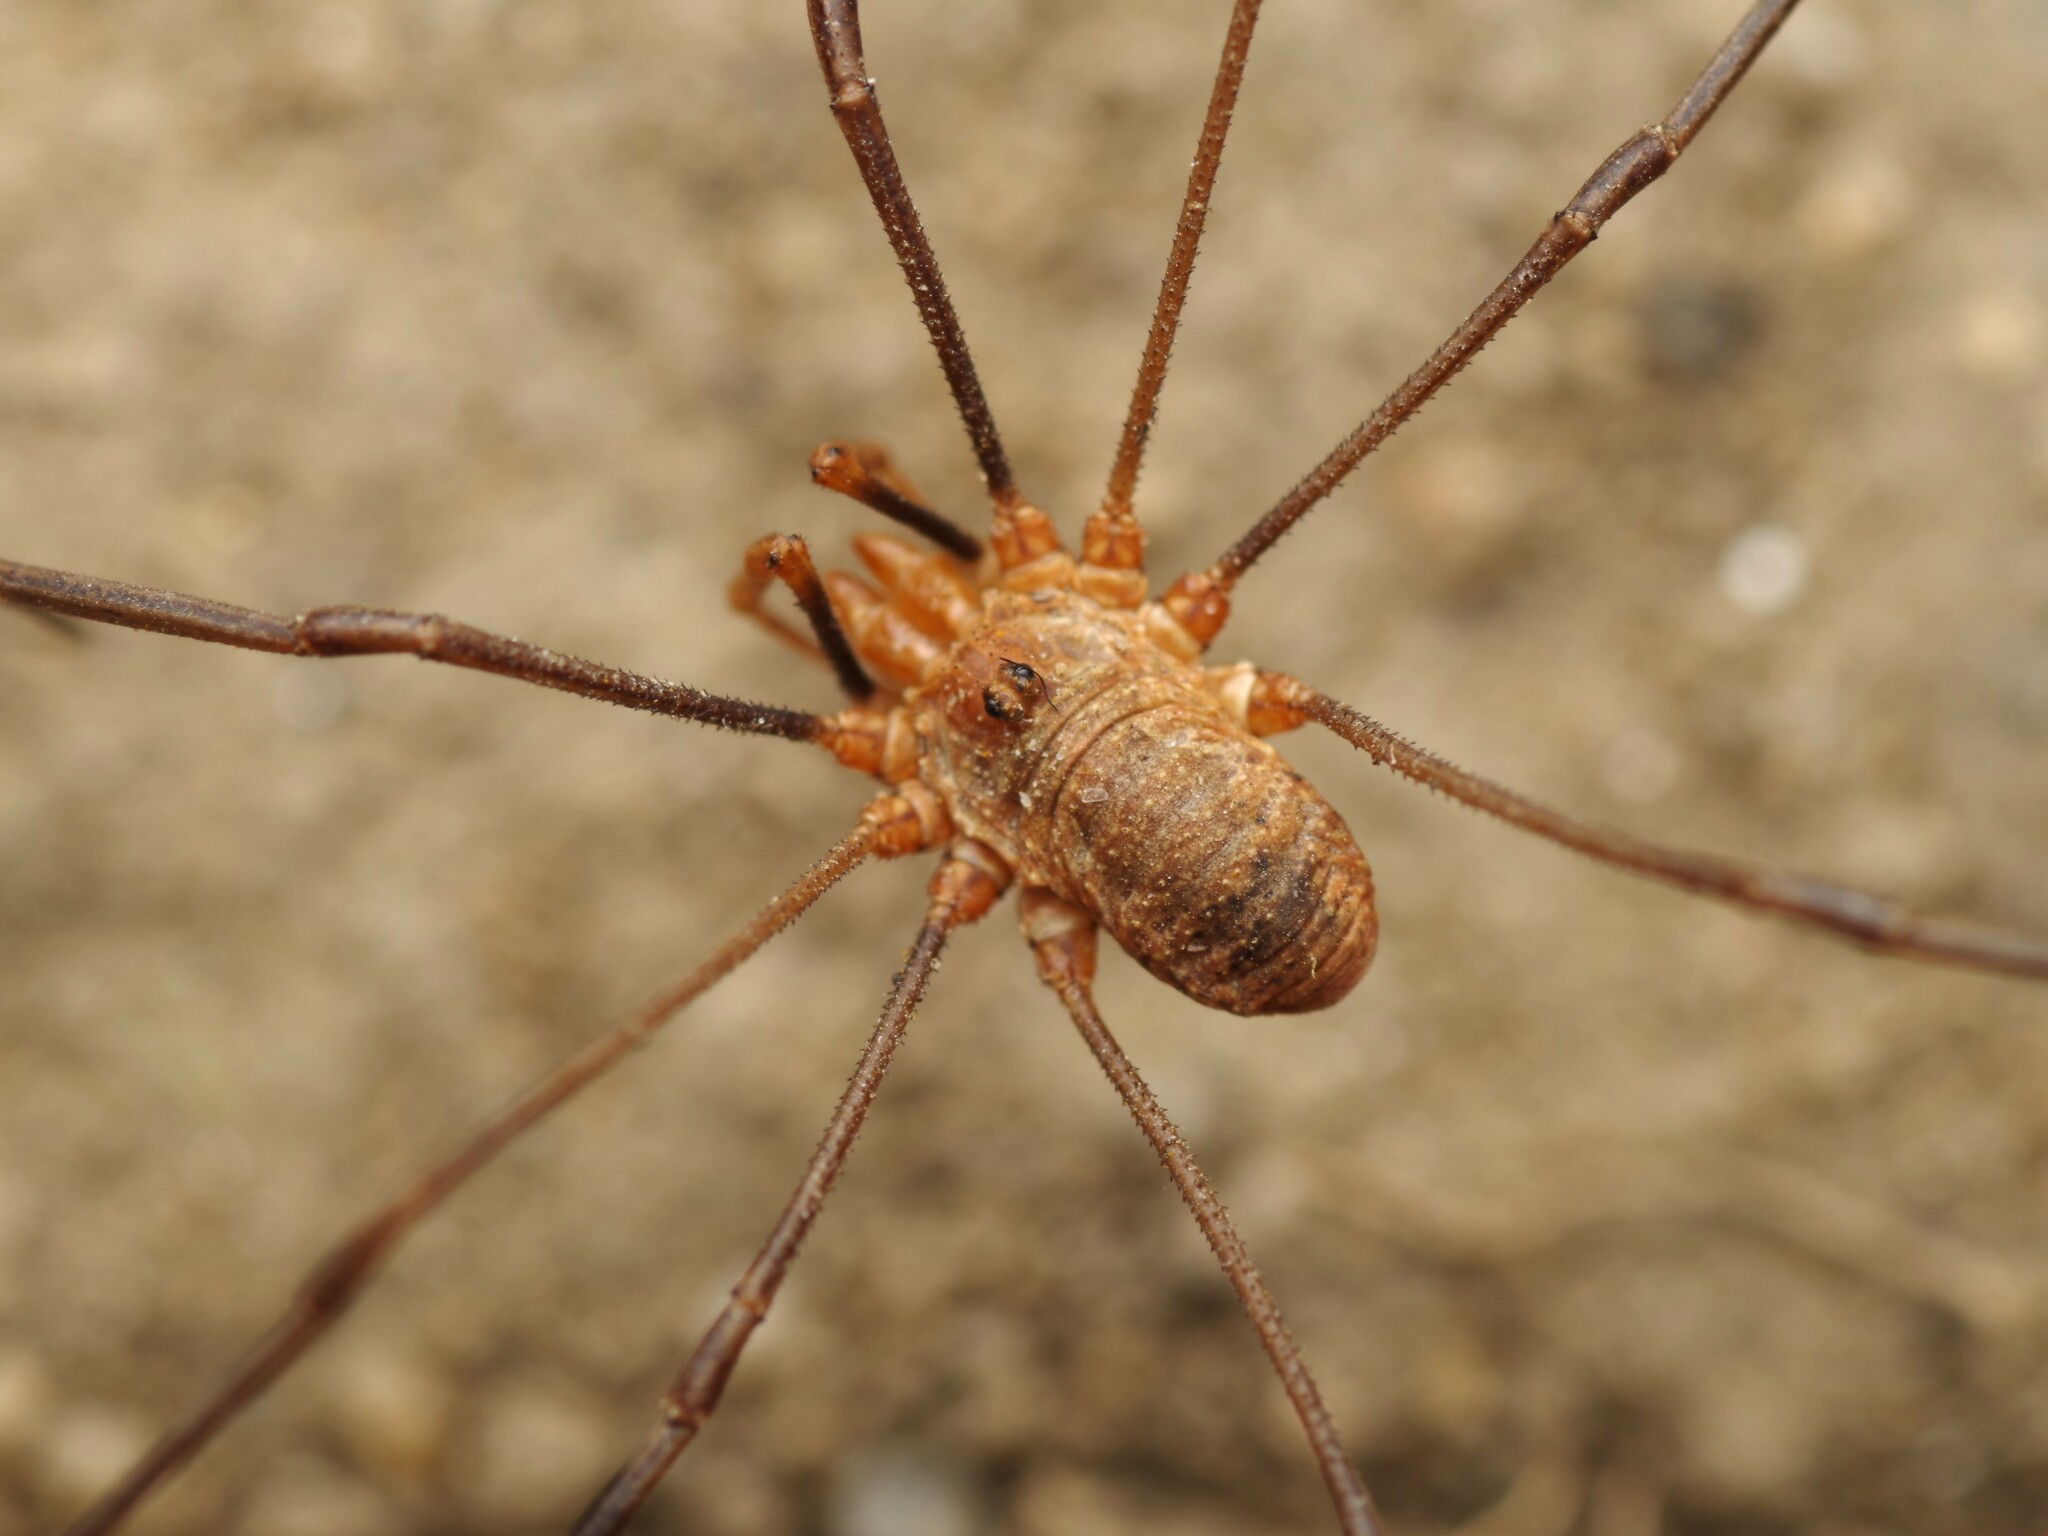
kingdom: Animalia
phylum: Arthropoda
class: Arachnida
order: Opiliones
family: Phalangiidae
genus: Phalangium
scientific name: Phalangium opilio
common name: Daddy longleg
